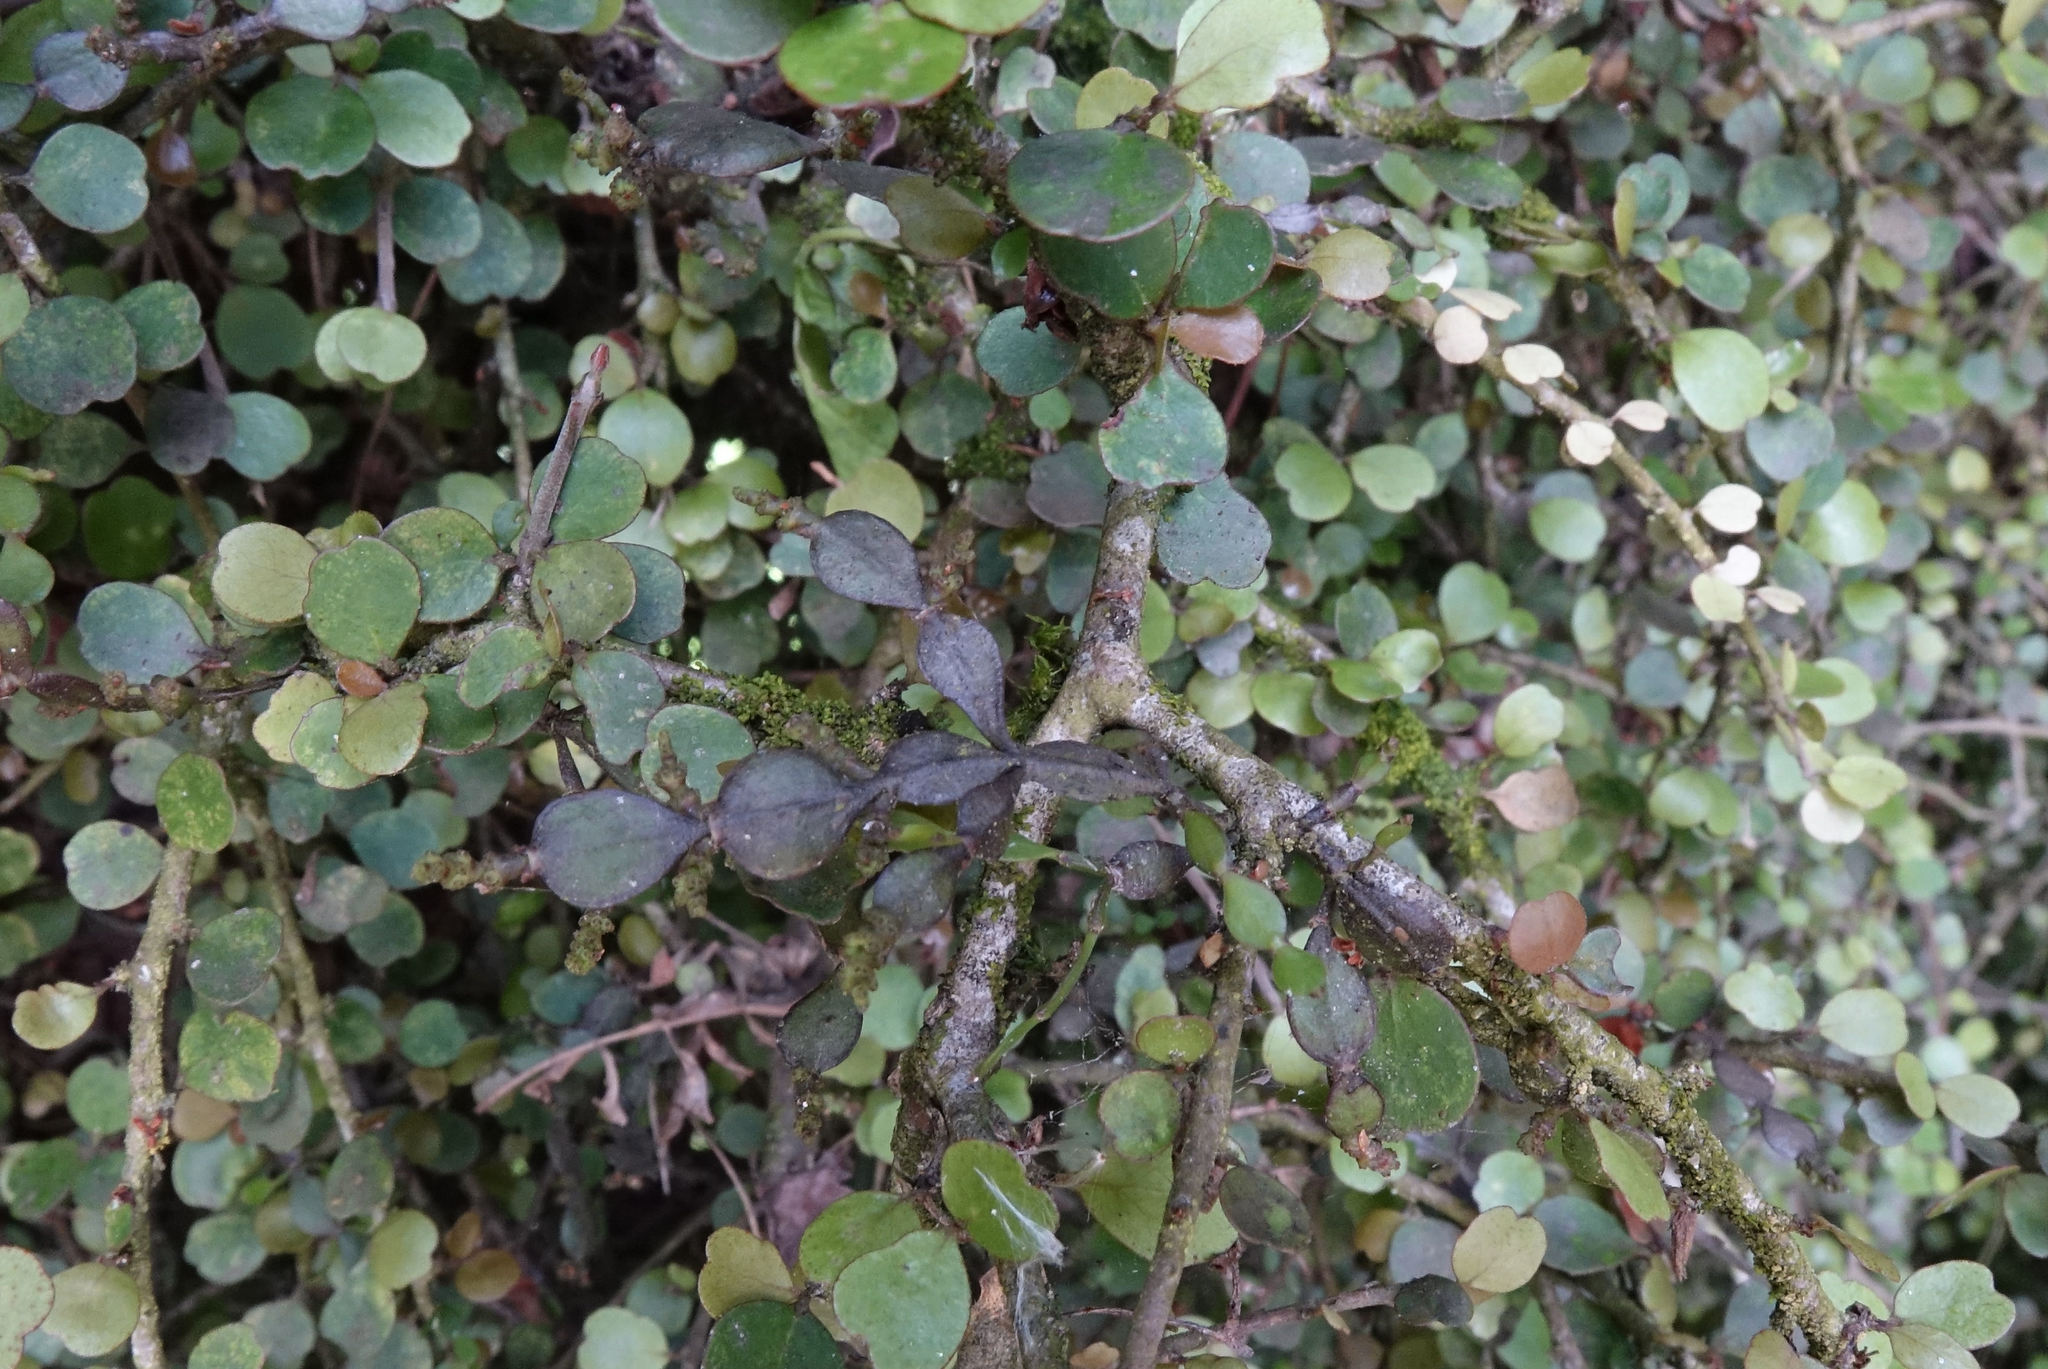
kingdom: Plantae
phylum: Tracheophyta
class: Magnoliopsida
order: Santalales
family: Viscaceae
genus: Korthalsella
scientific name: Korthalsella lindsayi
